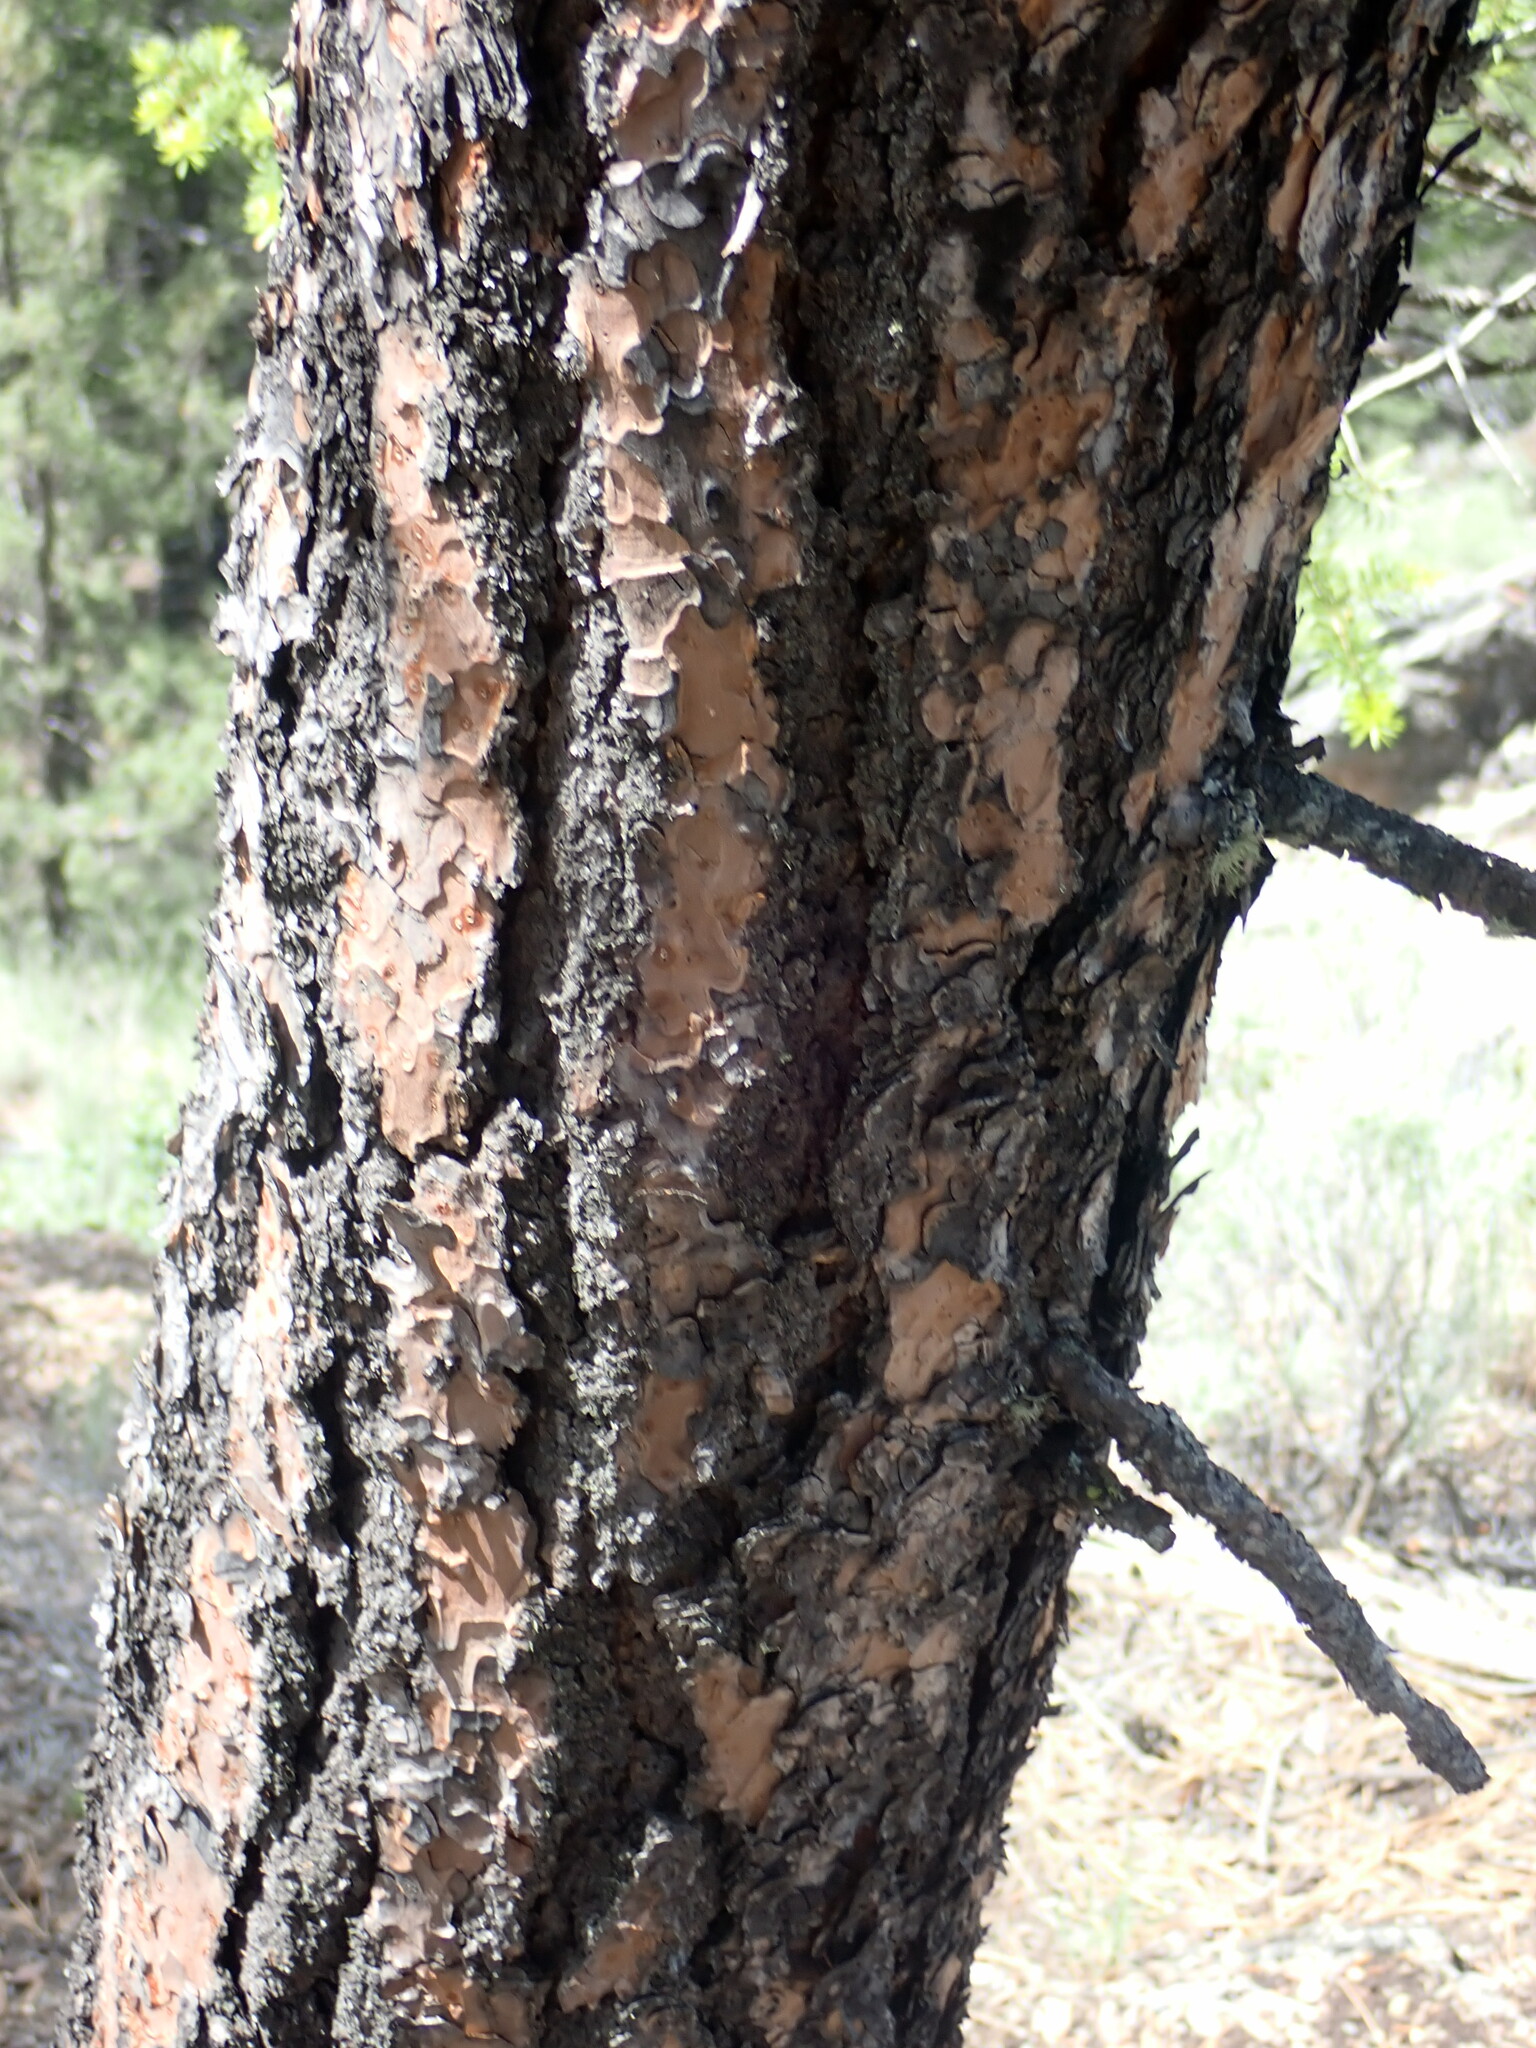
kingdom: Plantae
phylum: Tracheophyta
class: Pinopsida
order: Pinales
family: Pinaceae
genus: Pinus
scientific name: Pinus ponderosa
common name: Western yellow-pine
